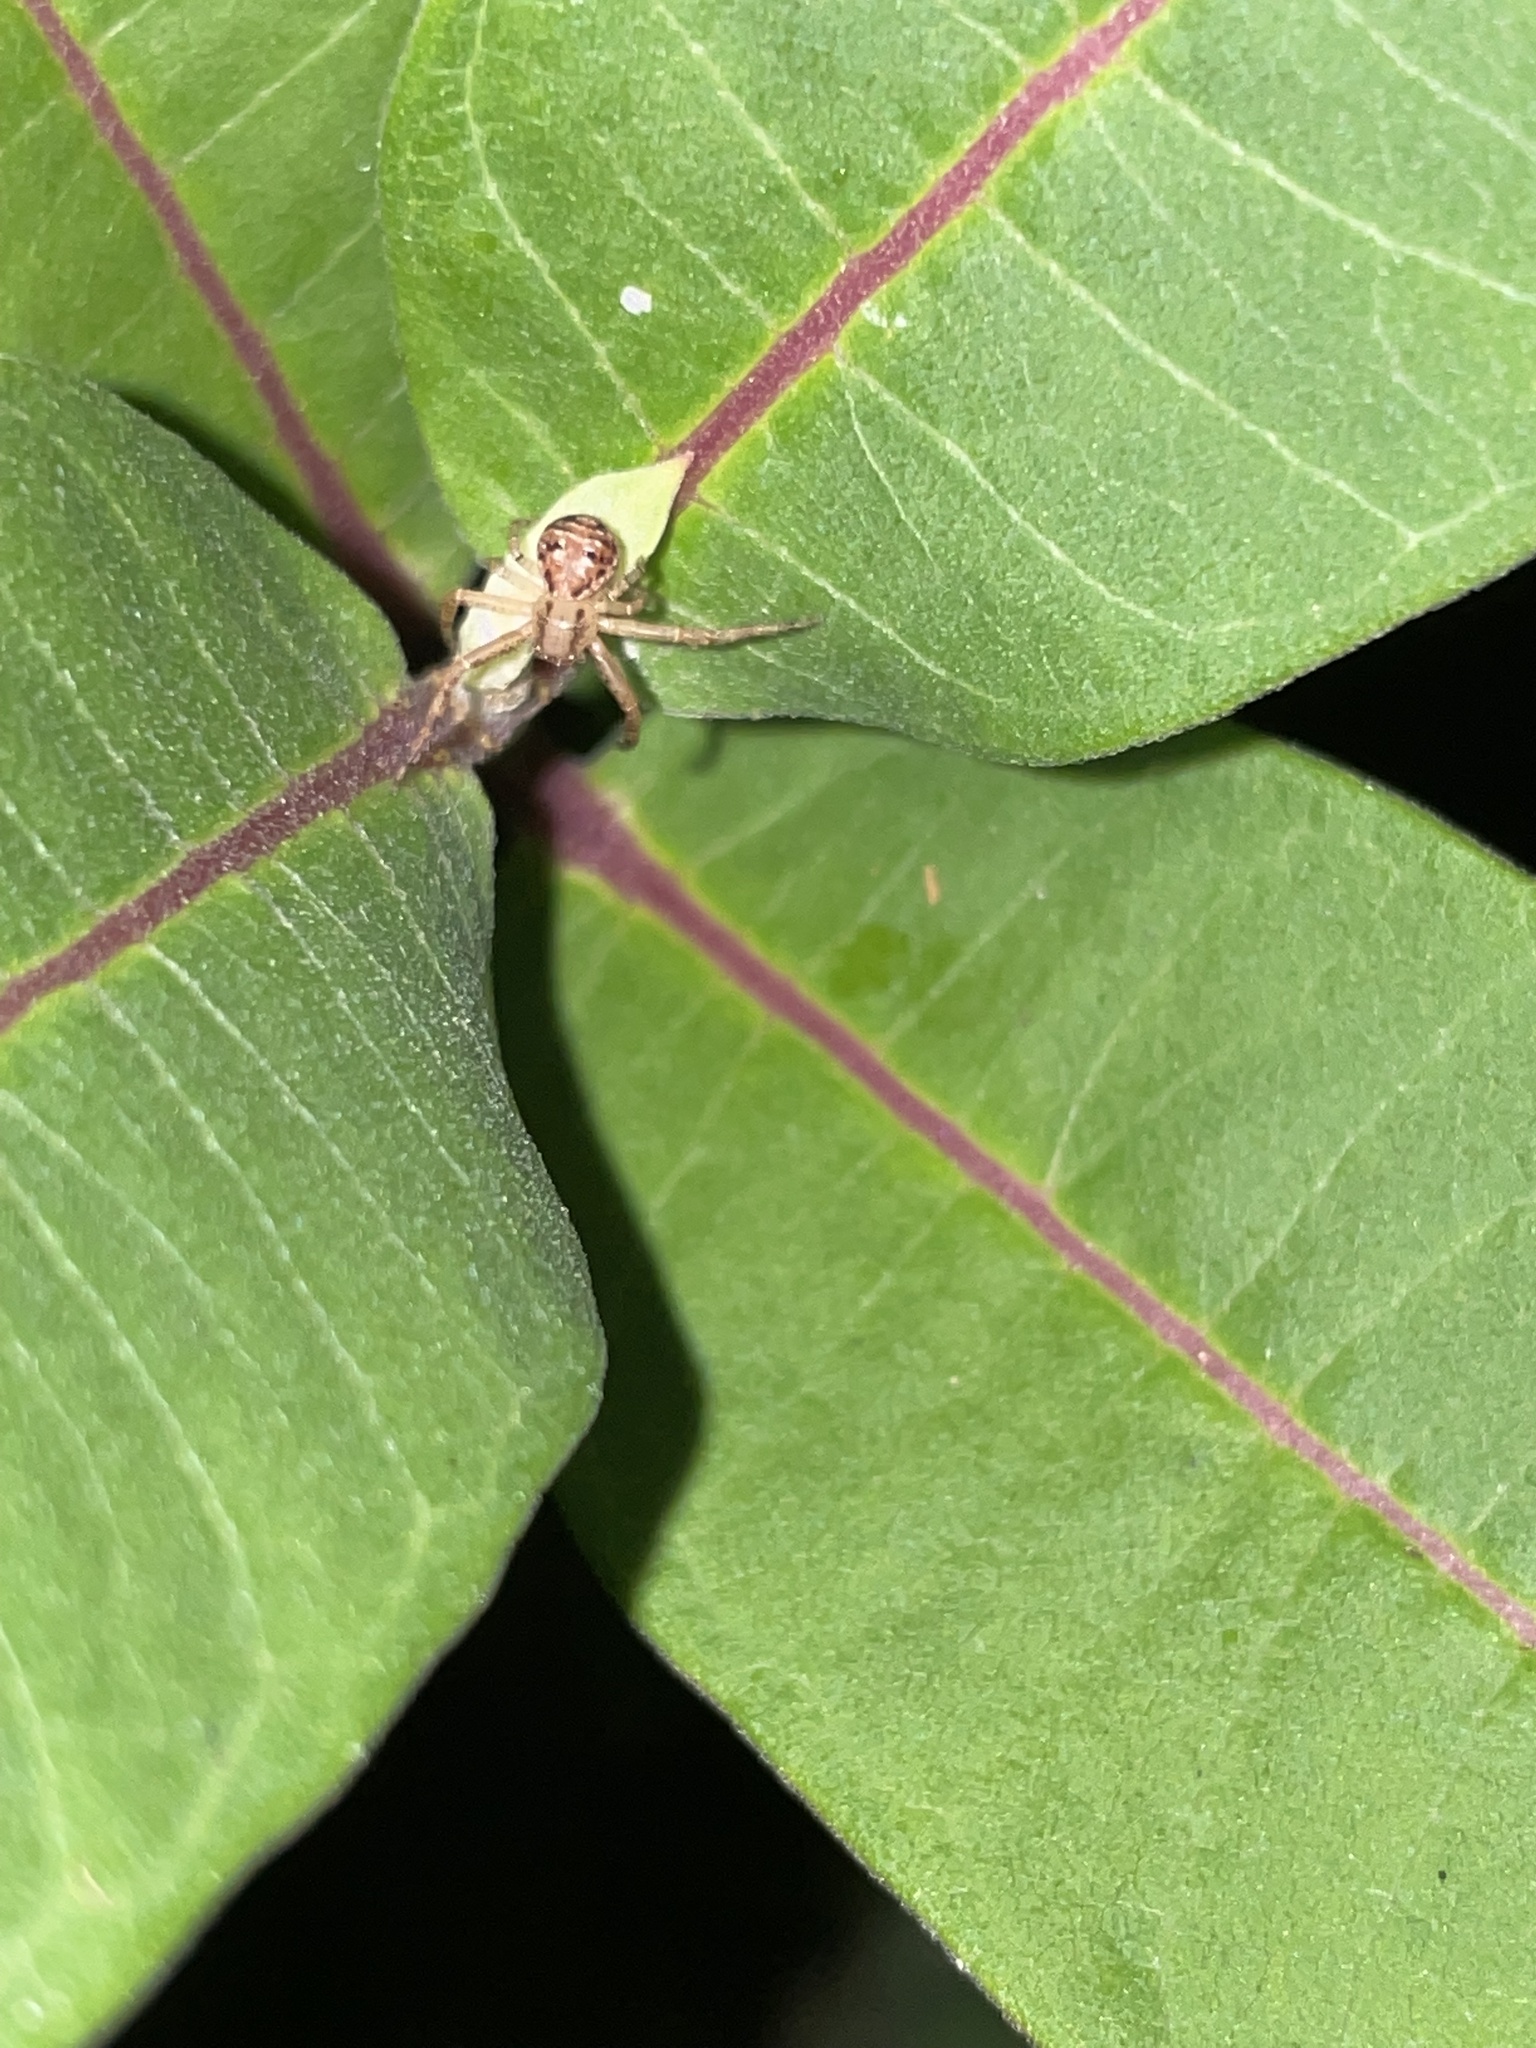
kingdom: Animalia
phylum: Arthropoda
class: Arachnida
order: Araneae
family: Thomisidae
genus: Xysticus
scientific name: Xysticus
